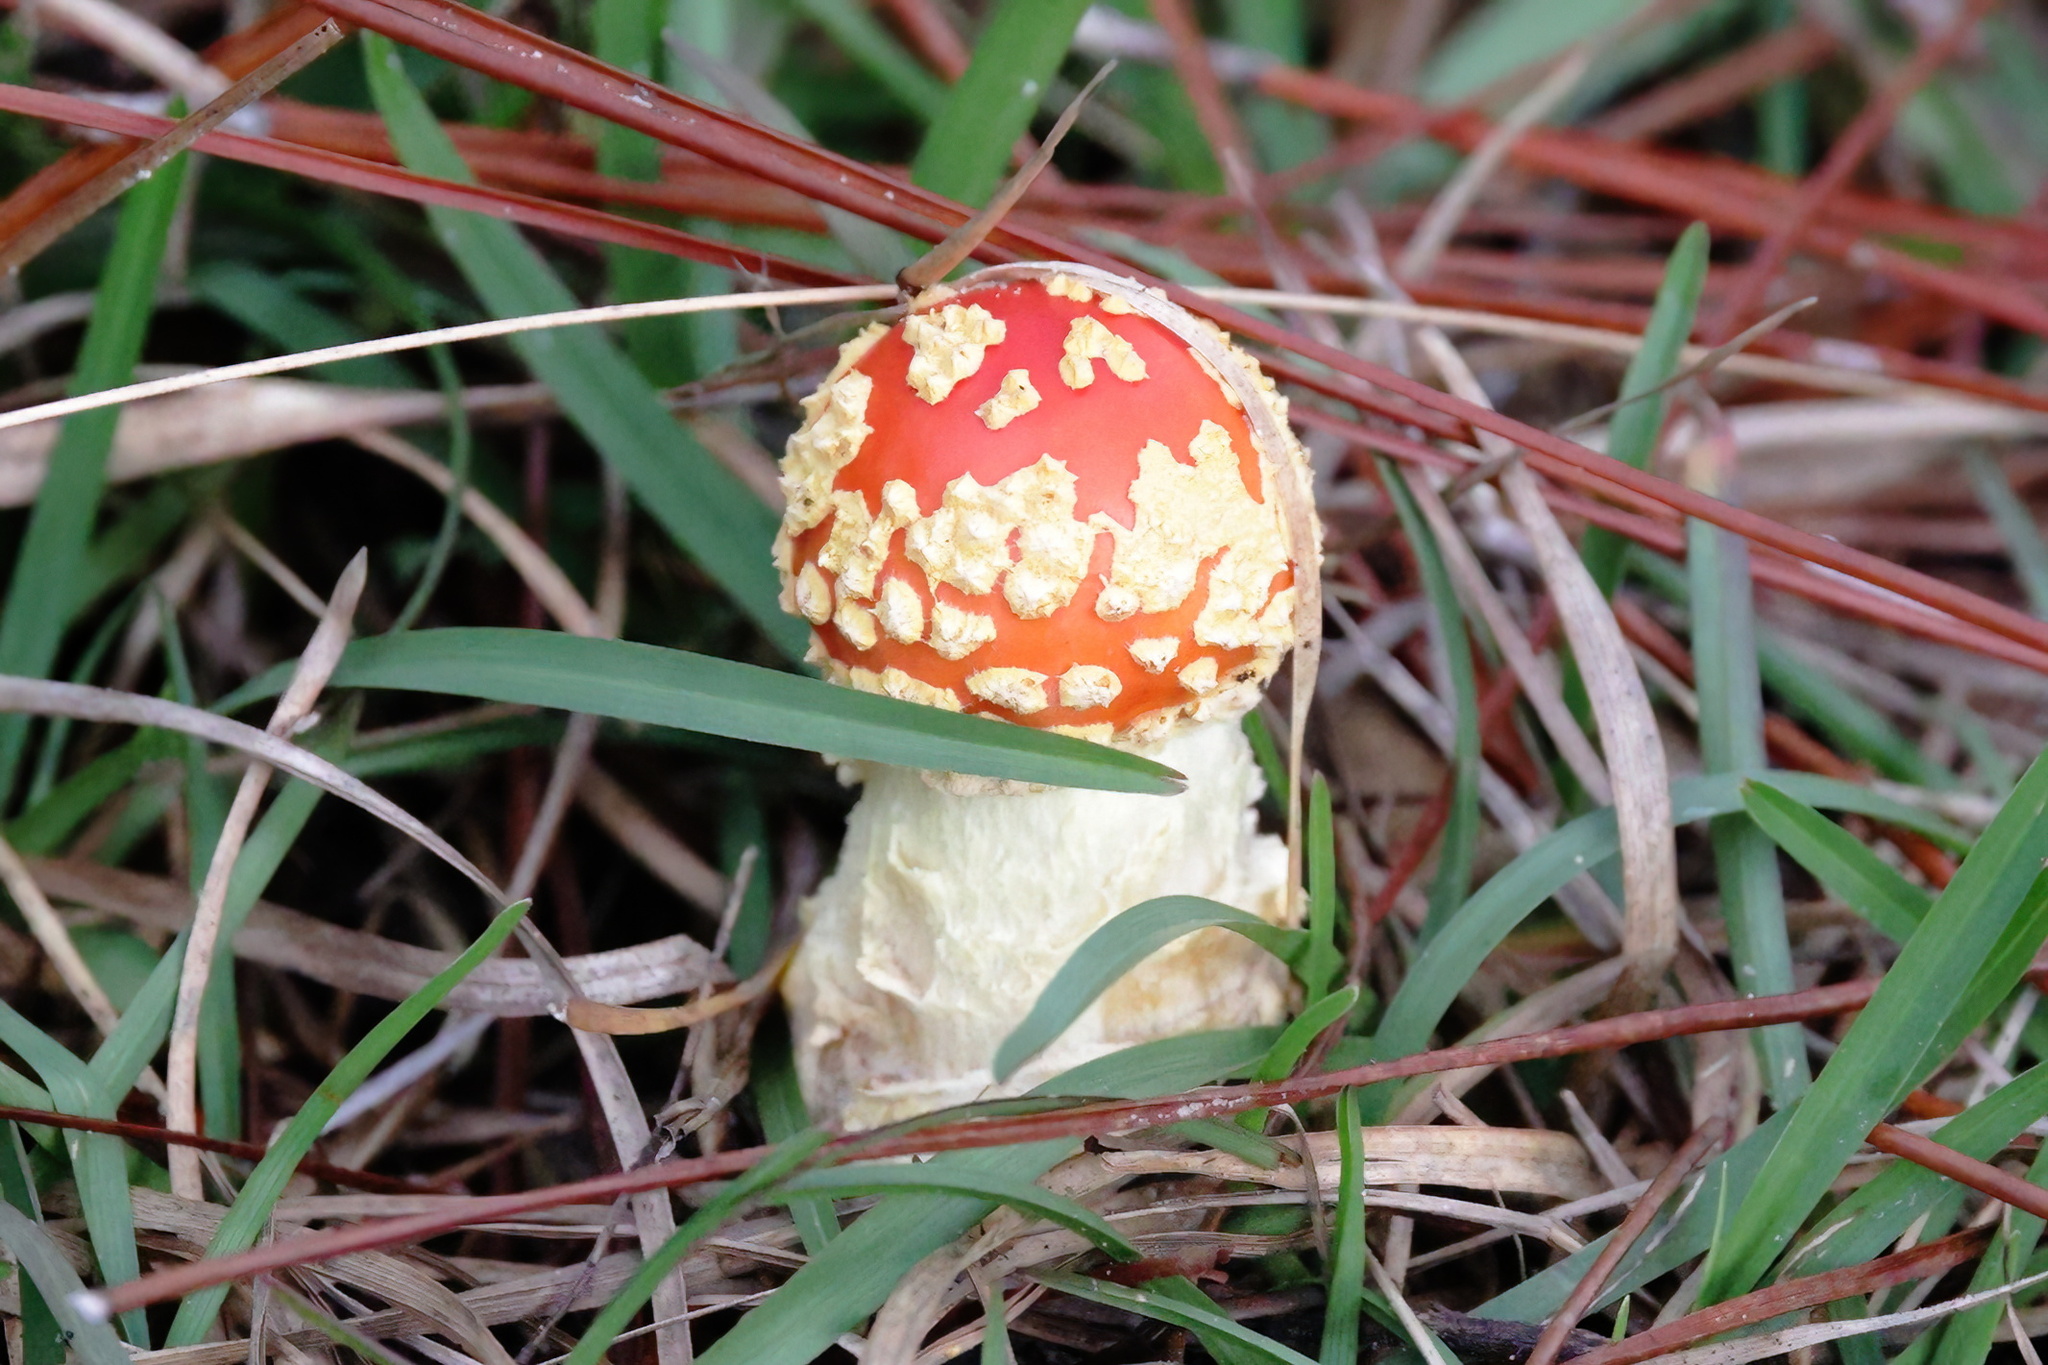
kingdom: Fungi
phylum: Basidiomycota
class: Agaricomycetes
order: Agaricales
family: Amanitaceae
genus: Amanita
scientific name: Amanita persicina
